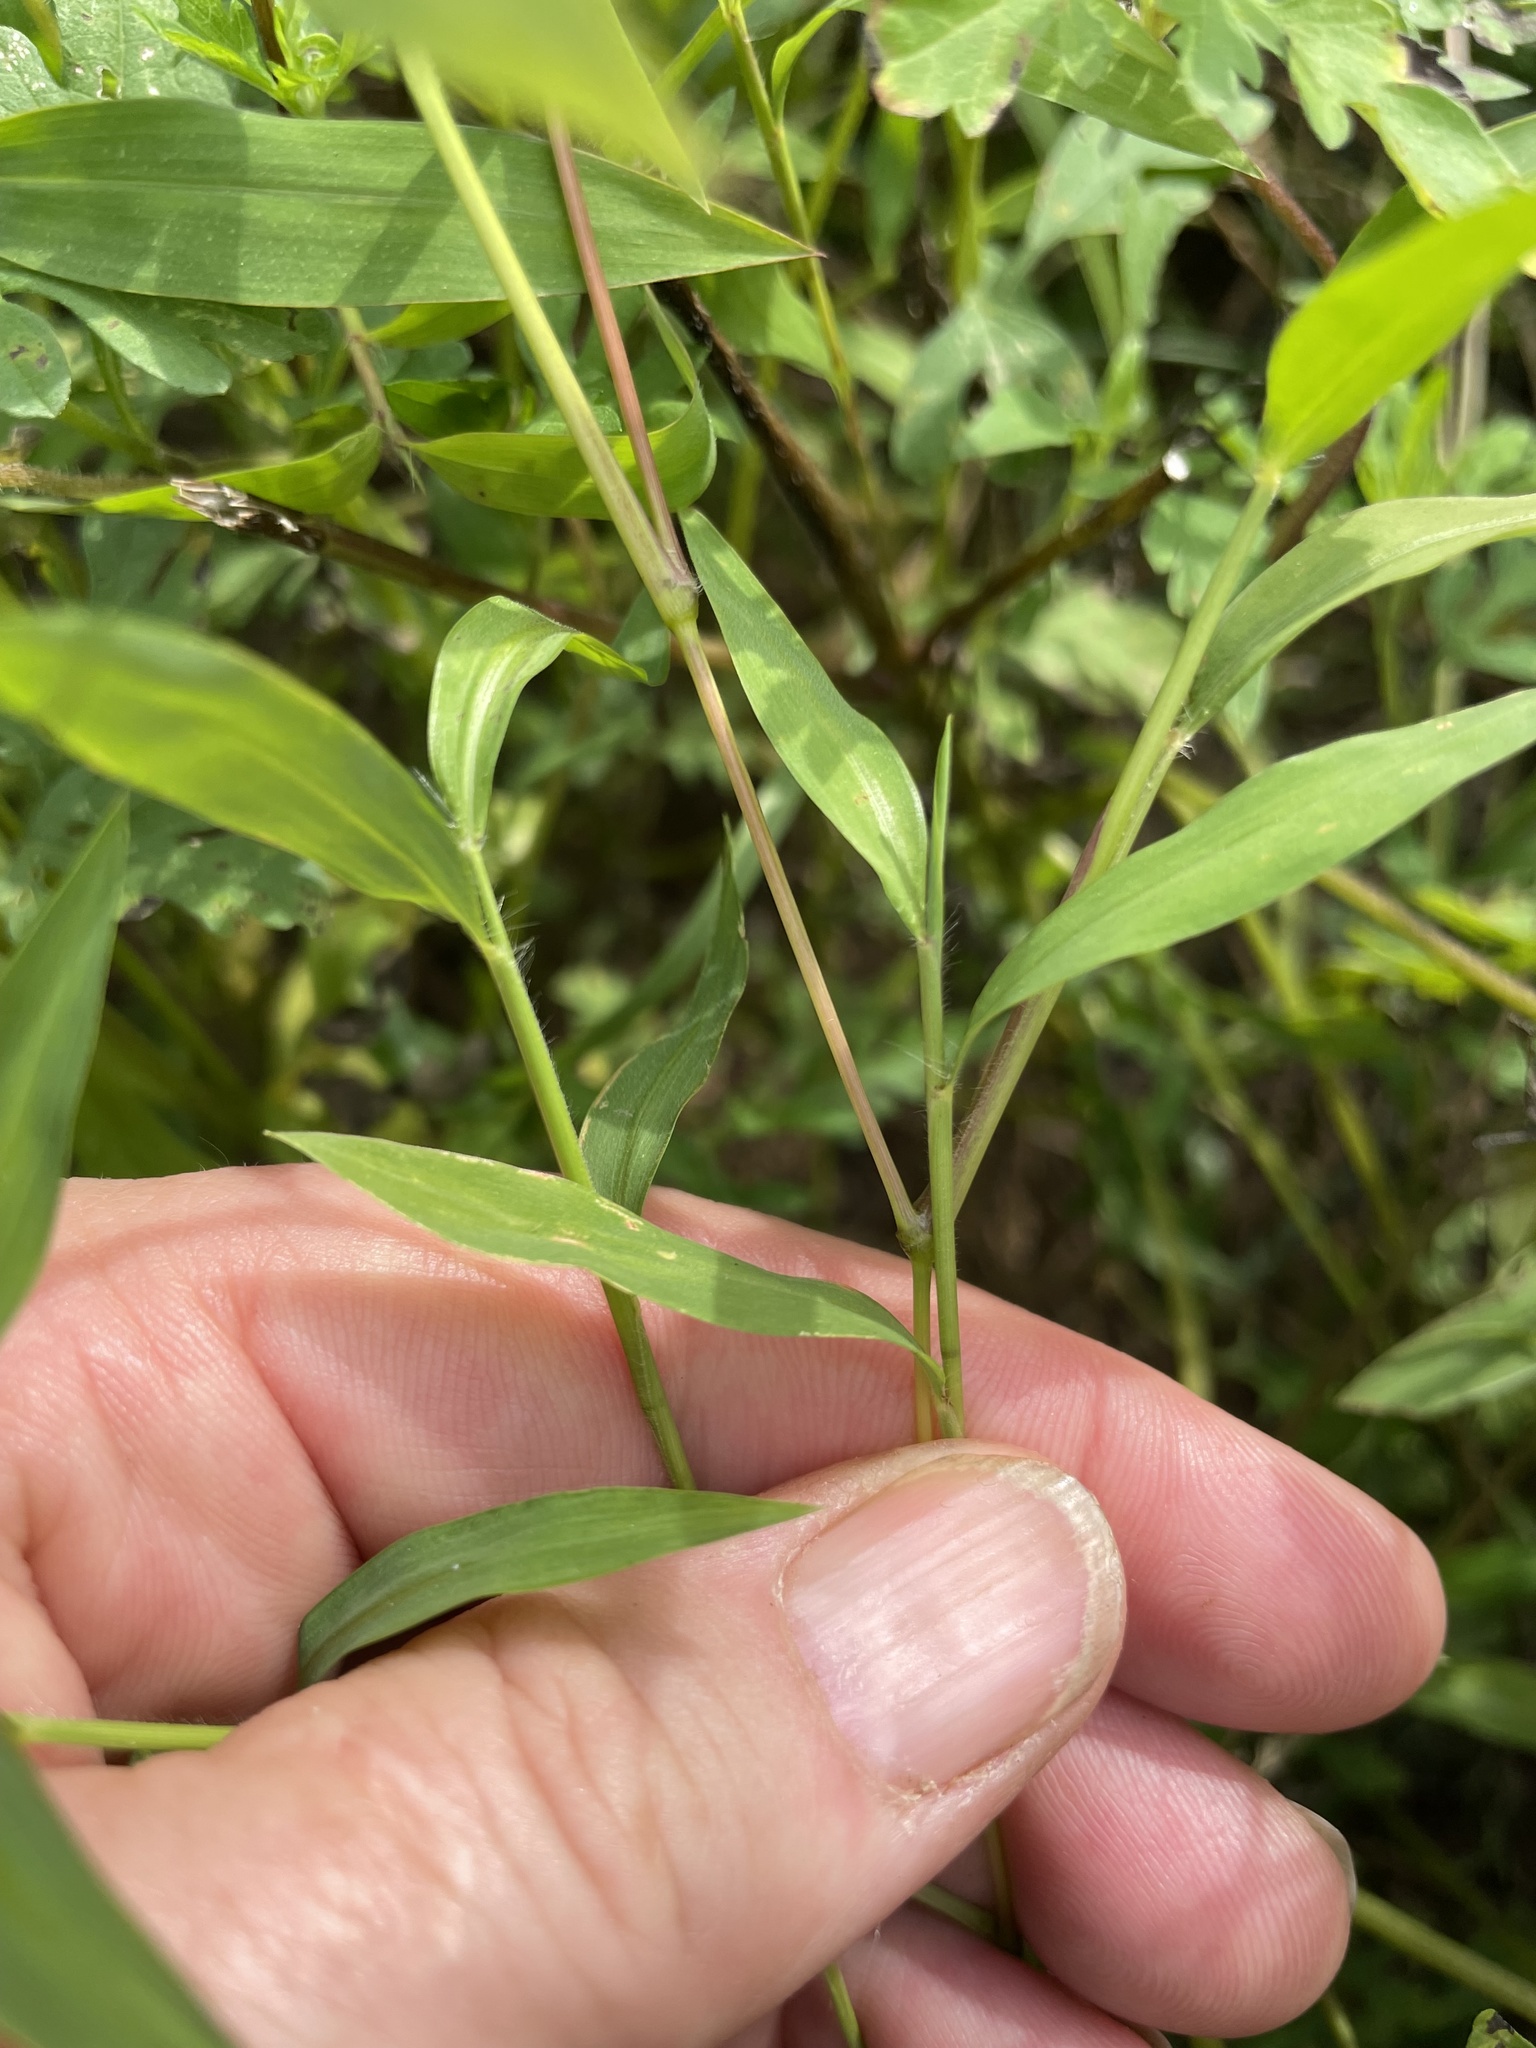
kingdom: Plantae
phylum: Tracheophyta
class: Liliopsida
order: Poales
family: Poaceae
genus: Microstegium
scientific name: Microstegium vimineum
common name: Japanese stiltgrass
